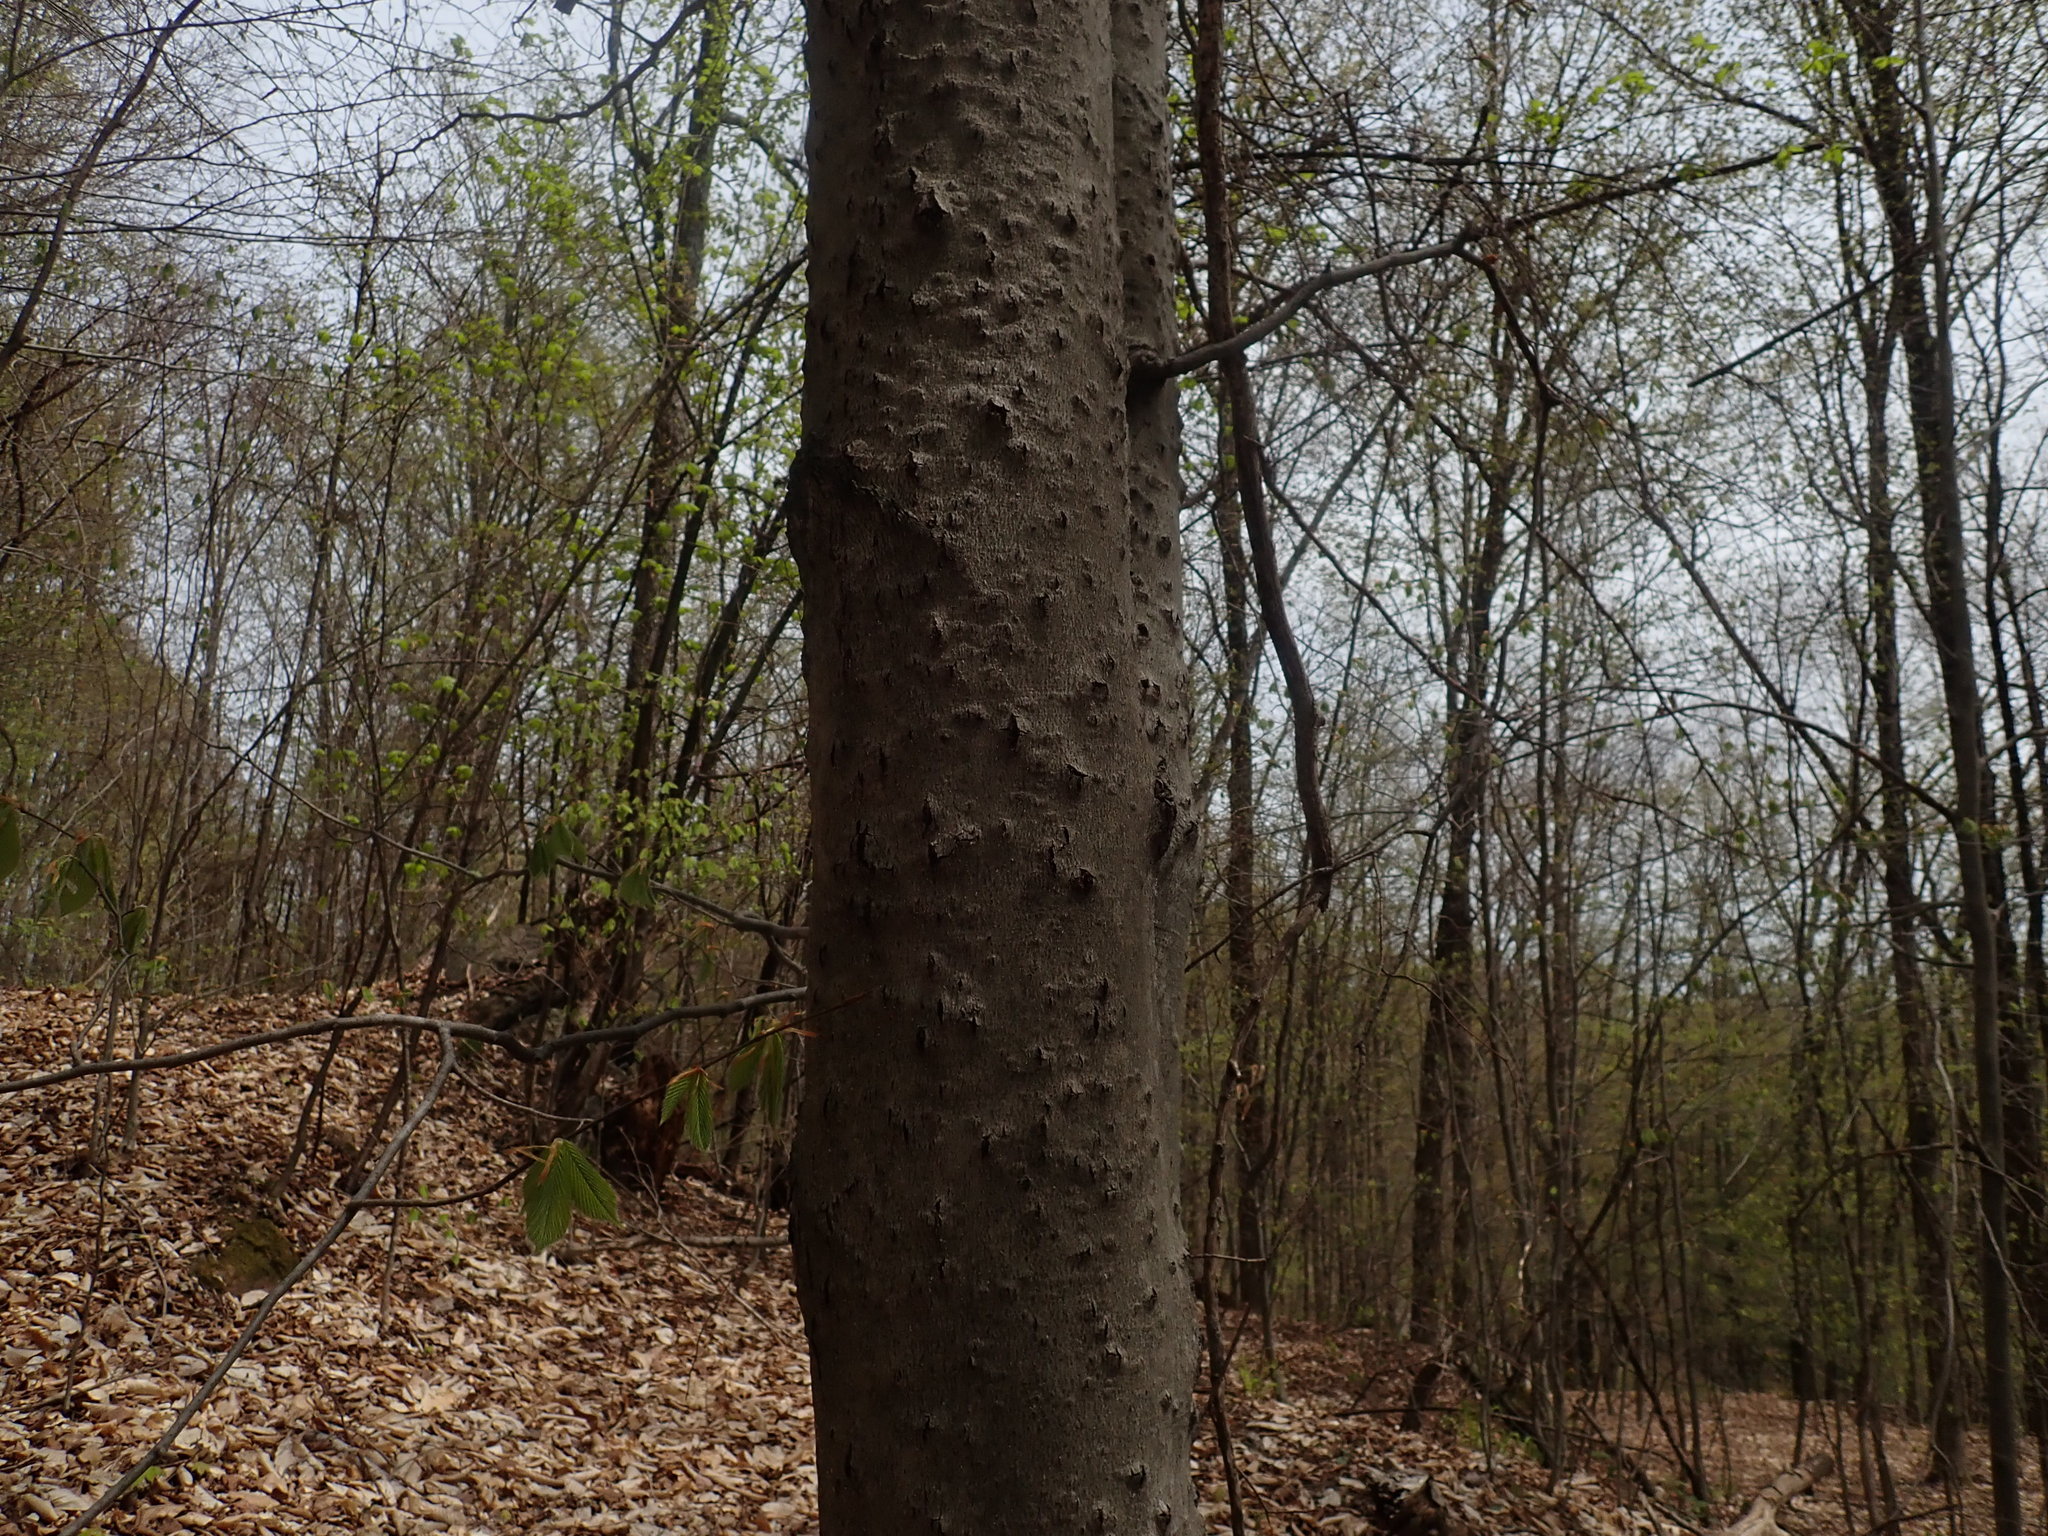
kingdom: Fungi
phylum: Ascomycota
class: Sordariomycetes
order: Hypocreales
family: Nectriaceae
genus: Neonectria
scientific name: Neonectria faginata
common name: Beech bark canker
